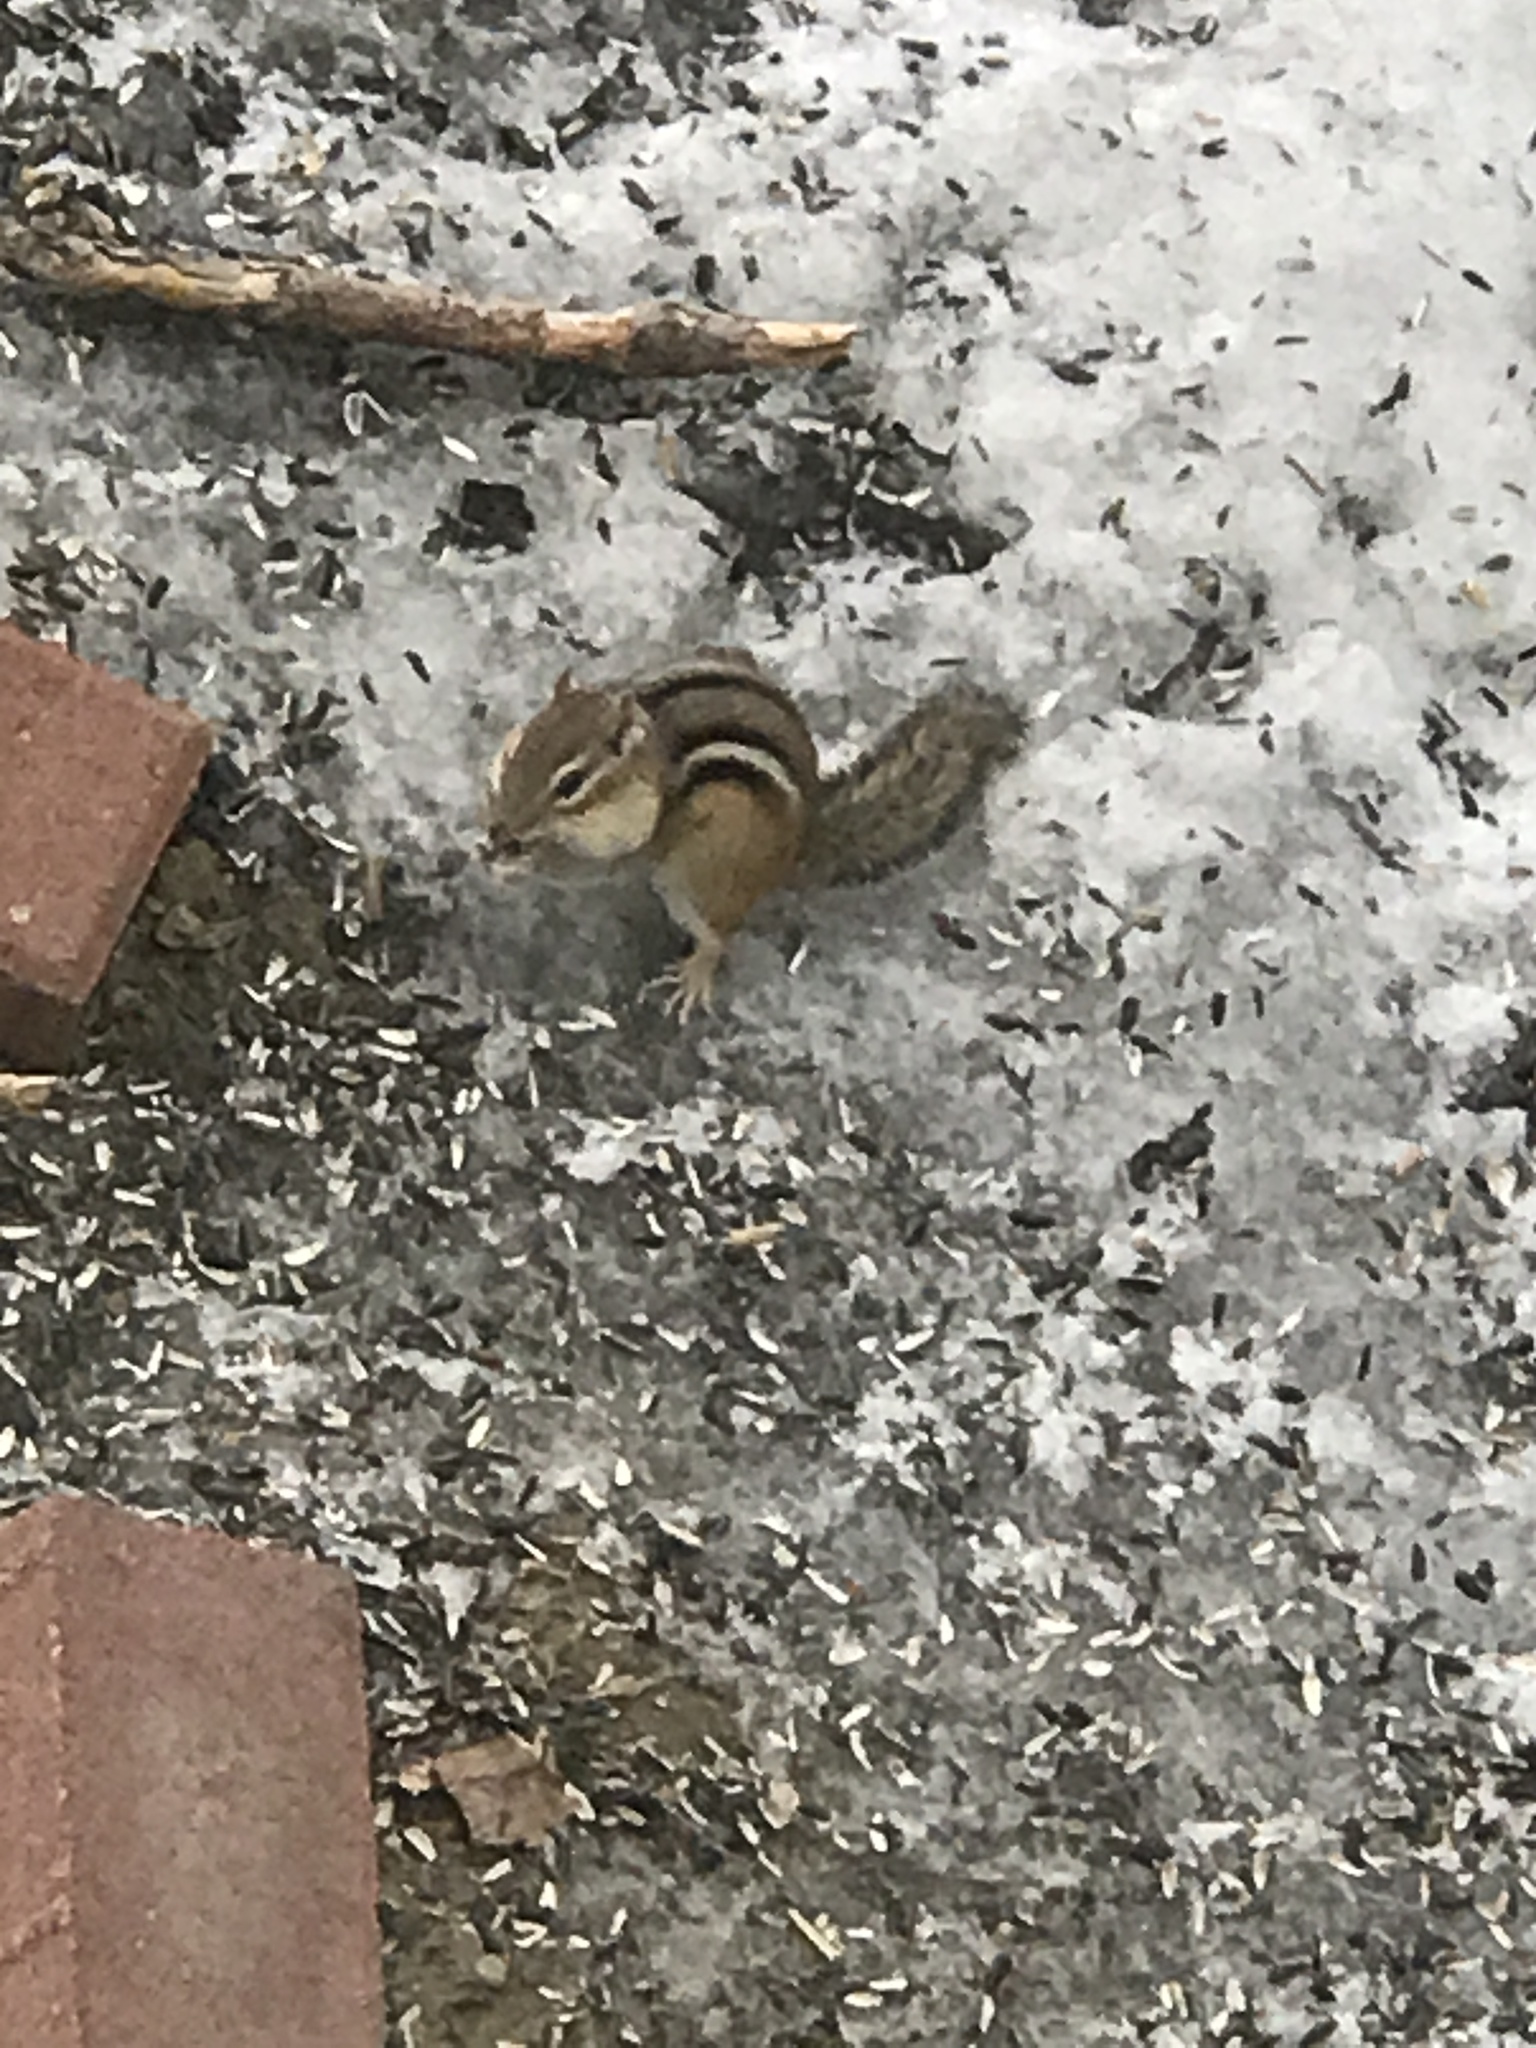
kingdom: Animalia
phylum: Chordata
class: Mammalia
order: Rodentia
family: Sciuridae
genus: Tamias
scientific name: Tamias striatus
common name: Eastern chipmunk
